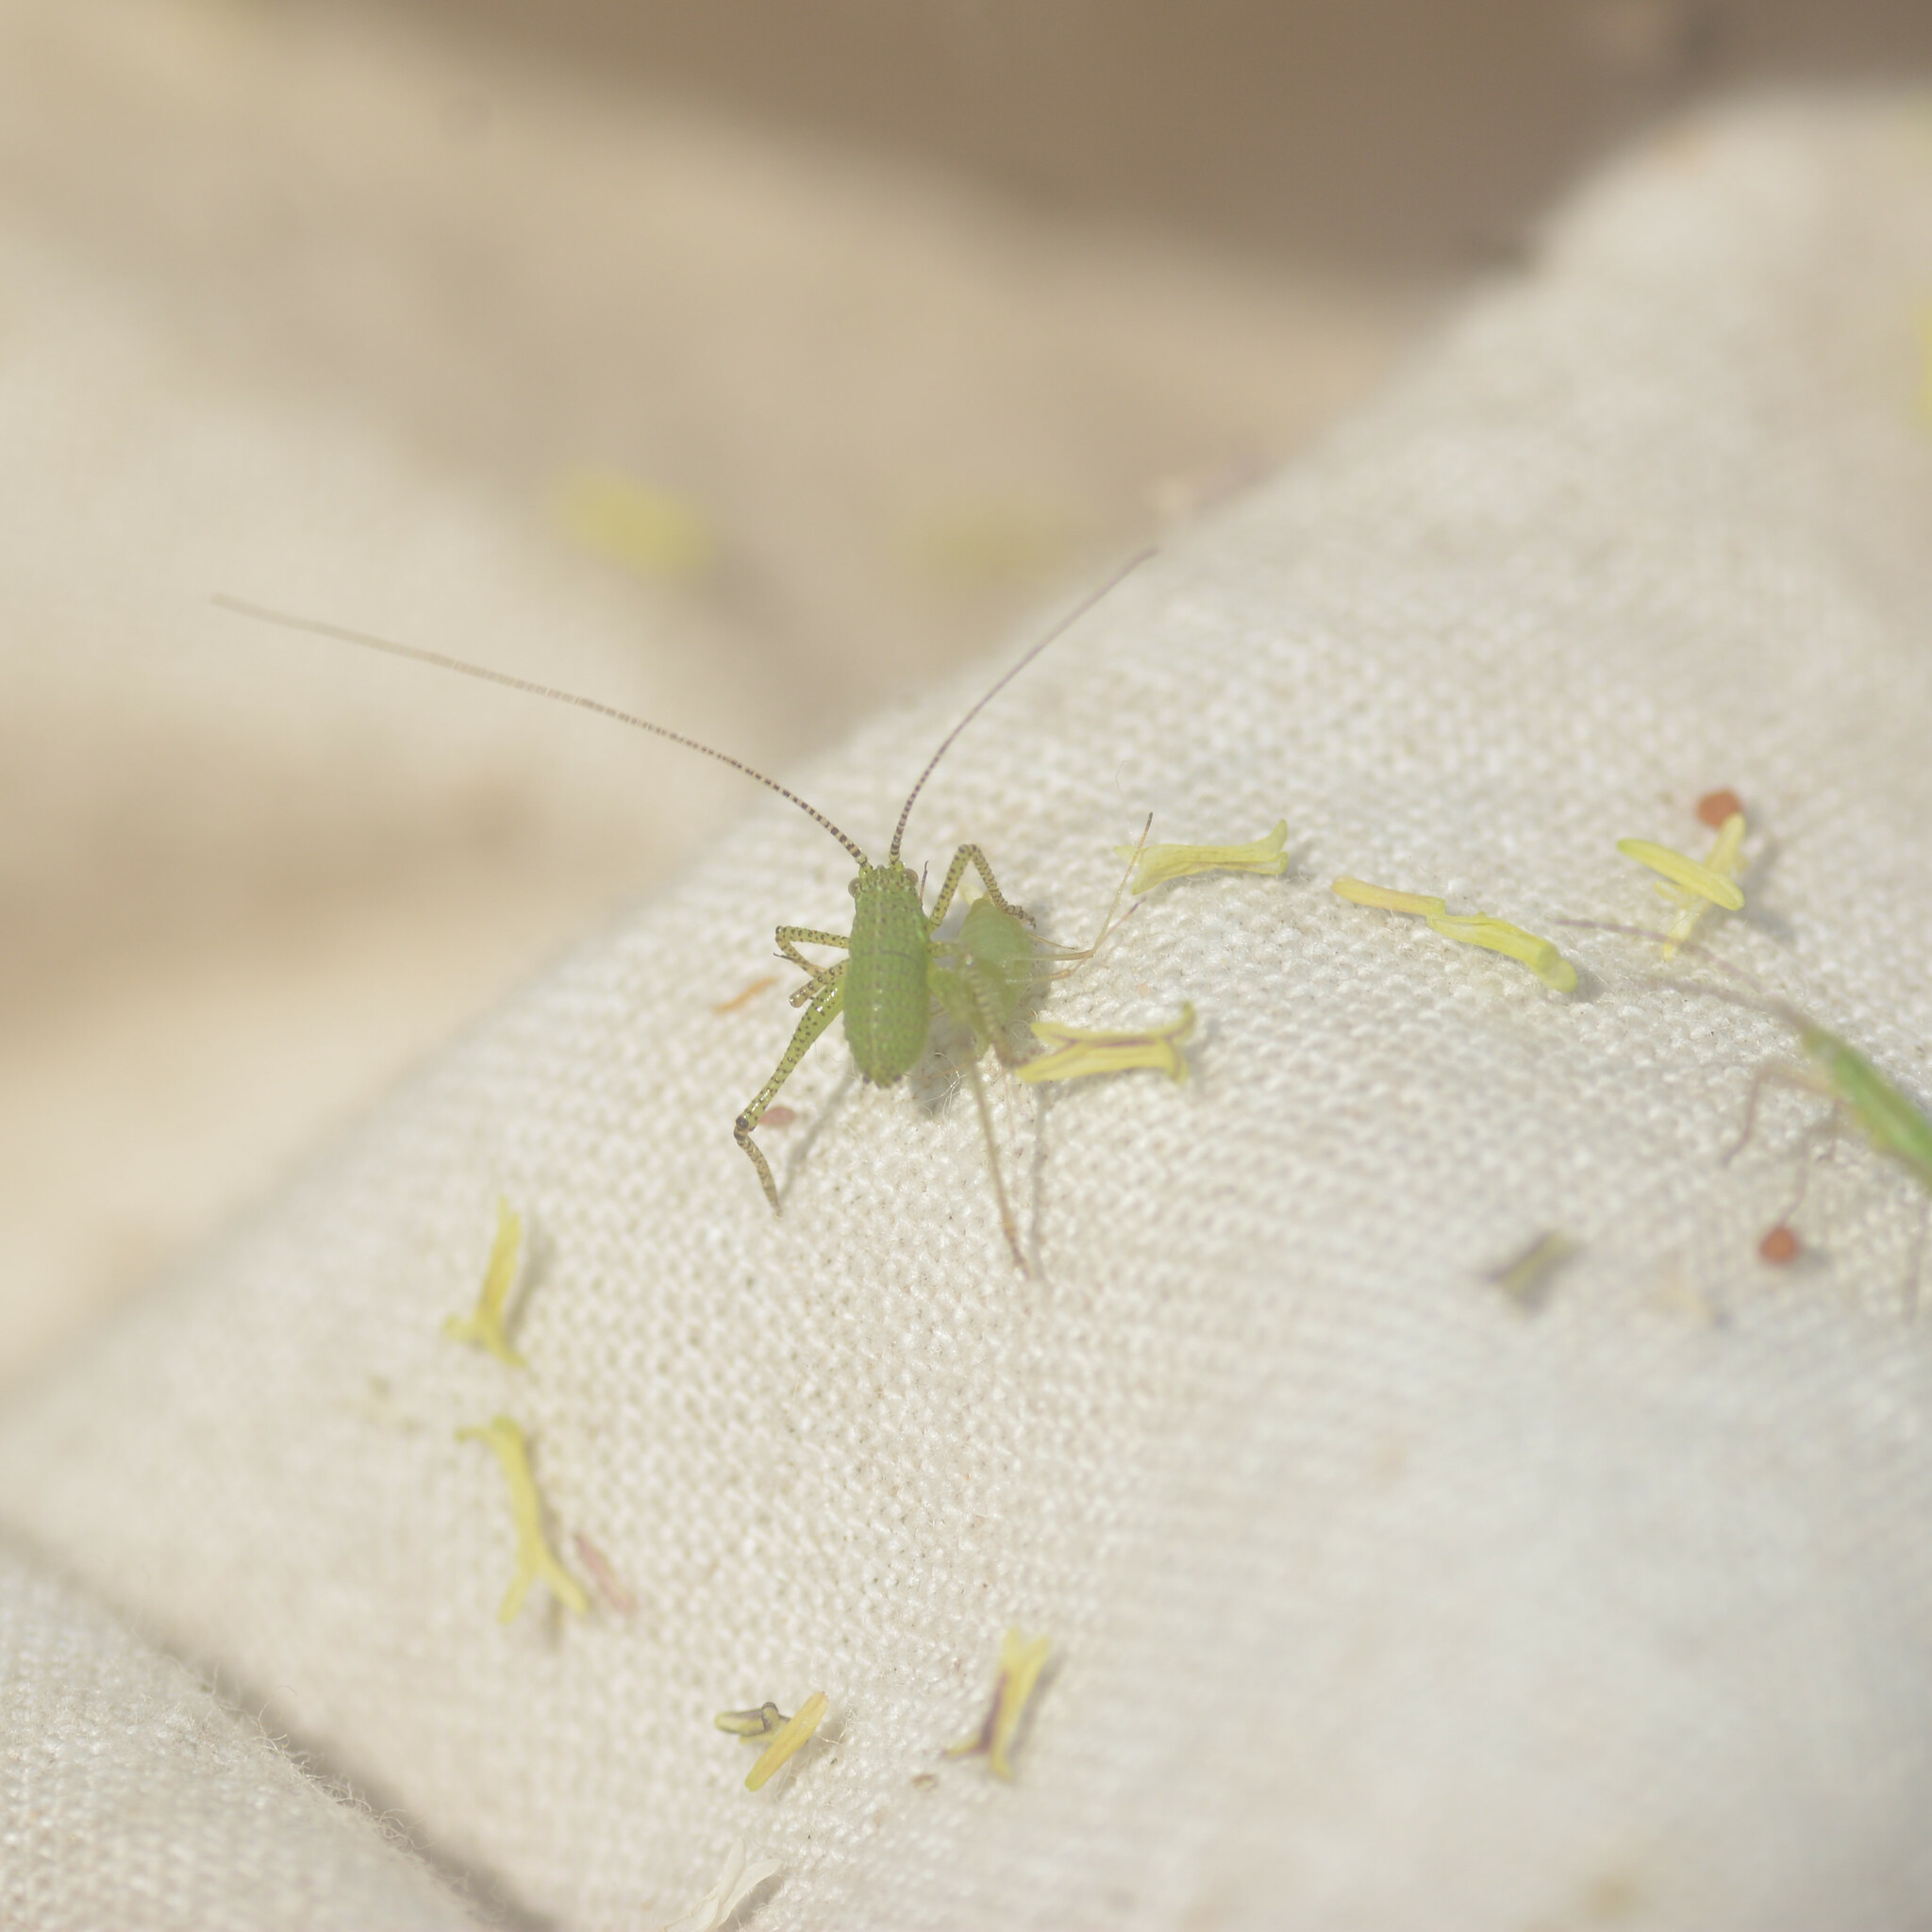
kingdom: Animalia
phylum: Arthropoda
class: Insecta
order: Orthoptera
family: Tettigoniidae
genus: Leptophyes
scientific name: Leptophyes punctatissima
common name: Speckled bush-cricket
